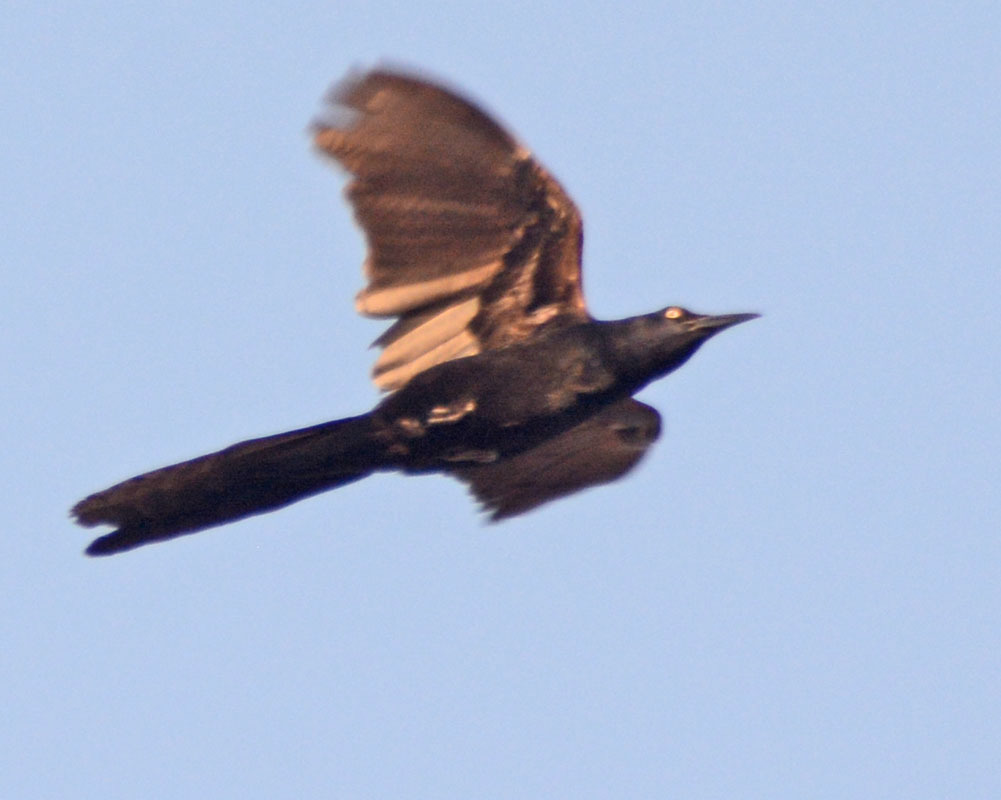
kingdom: Animalia
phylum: Chordata
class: Aves
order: Passeriformes
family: Icteridae
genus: Quiscalus
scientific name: Quiscalus mexicanus
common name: Great-tailed grackle
